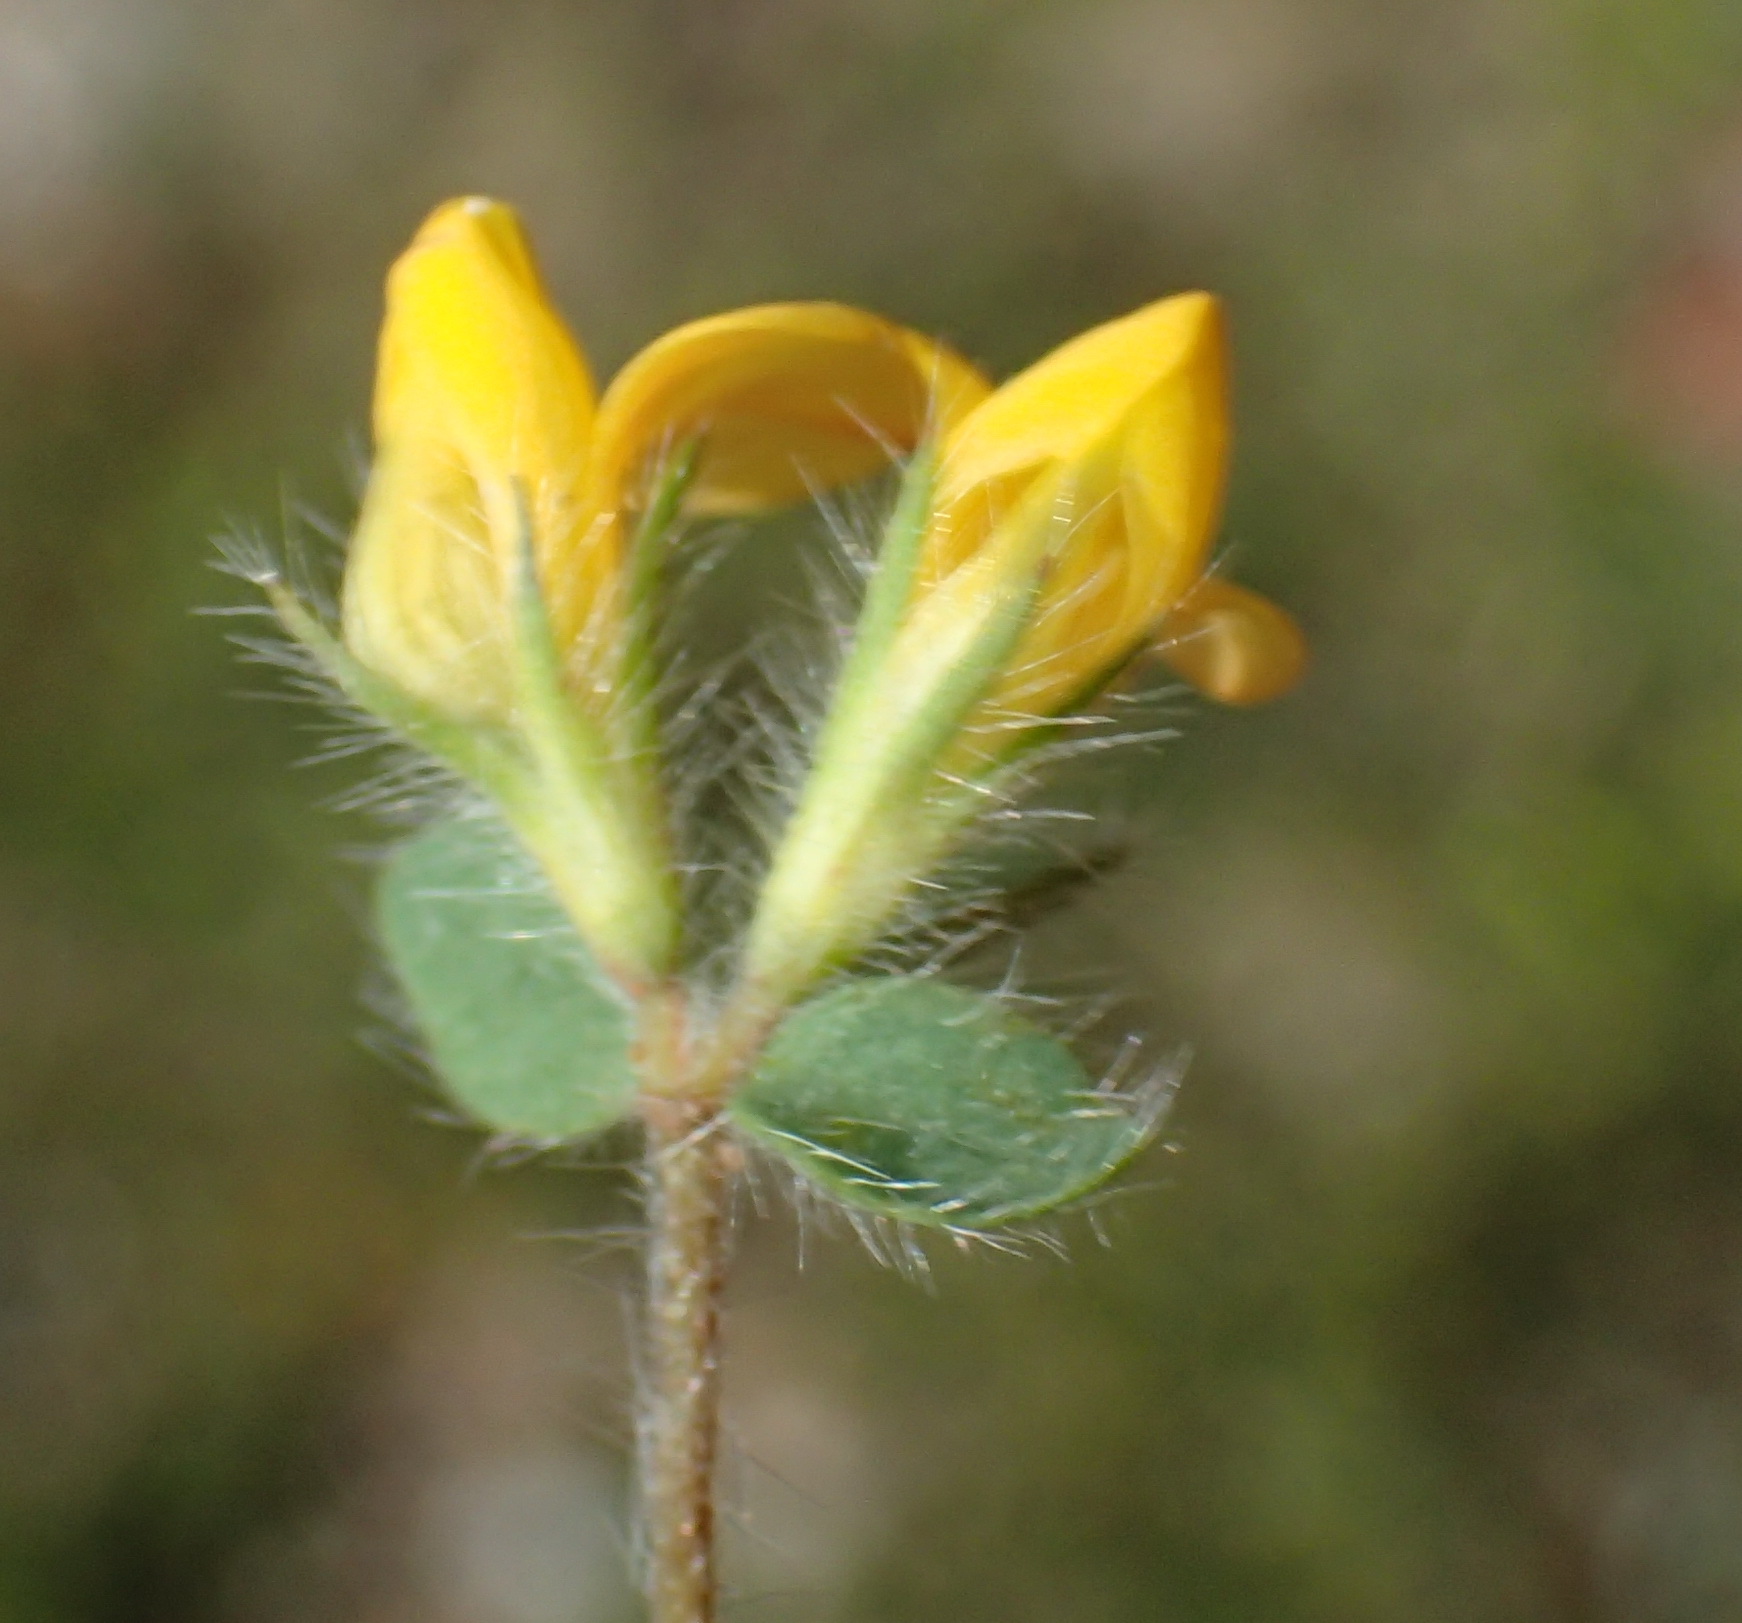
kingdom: Plantae
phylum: Tracheophyta
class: Magnoliopsida
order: Fabales
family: Fabaceae
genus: Lotus
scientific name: Lotus subbiflorus
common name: Hairy bird's-foot trefoil
